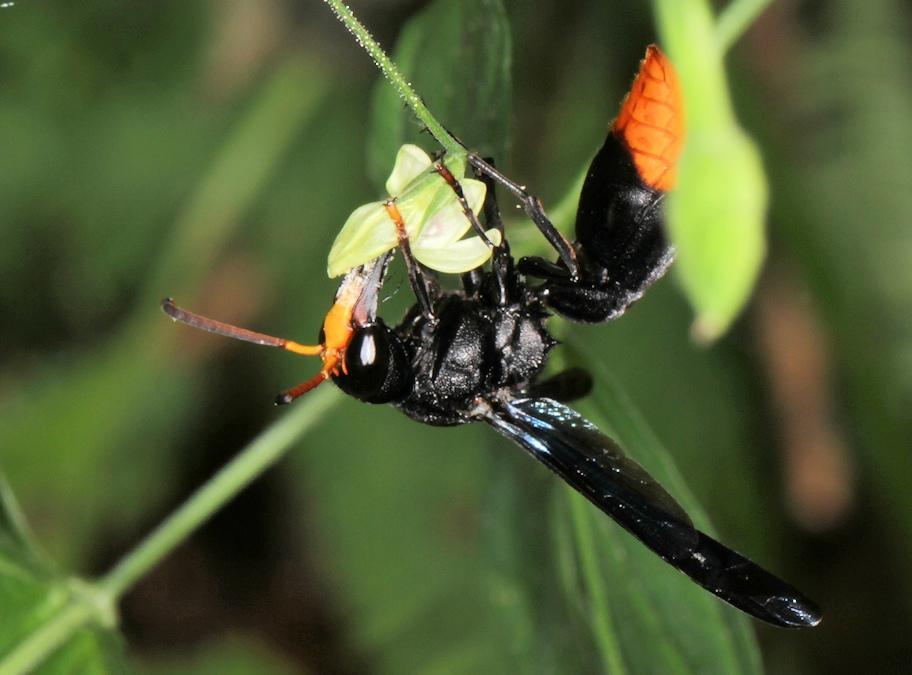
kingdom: Animalia
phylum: Arthropoda
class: Insecta
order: Hymenoptera
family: Vespidae
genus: Synagris
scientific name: Synagris
